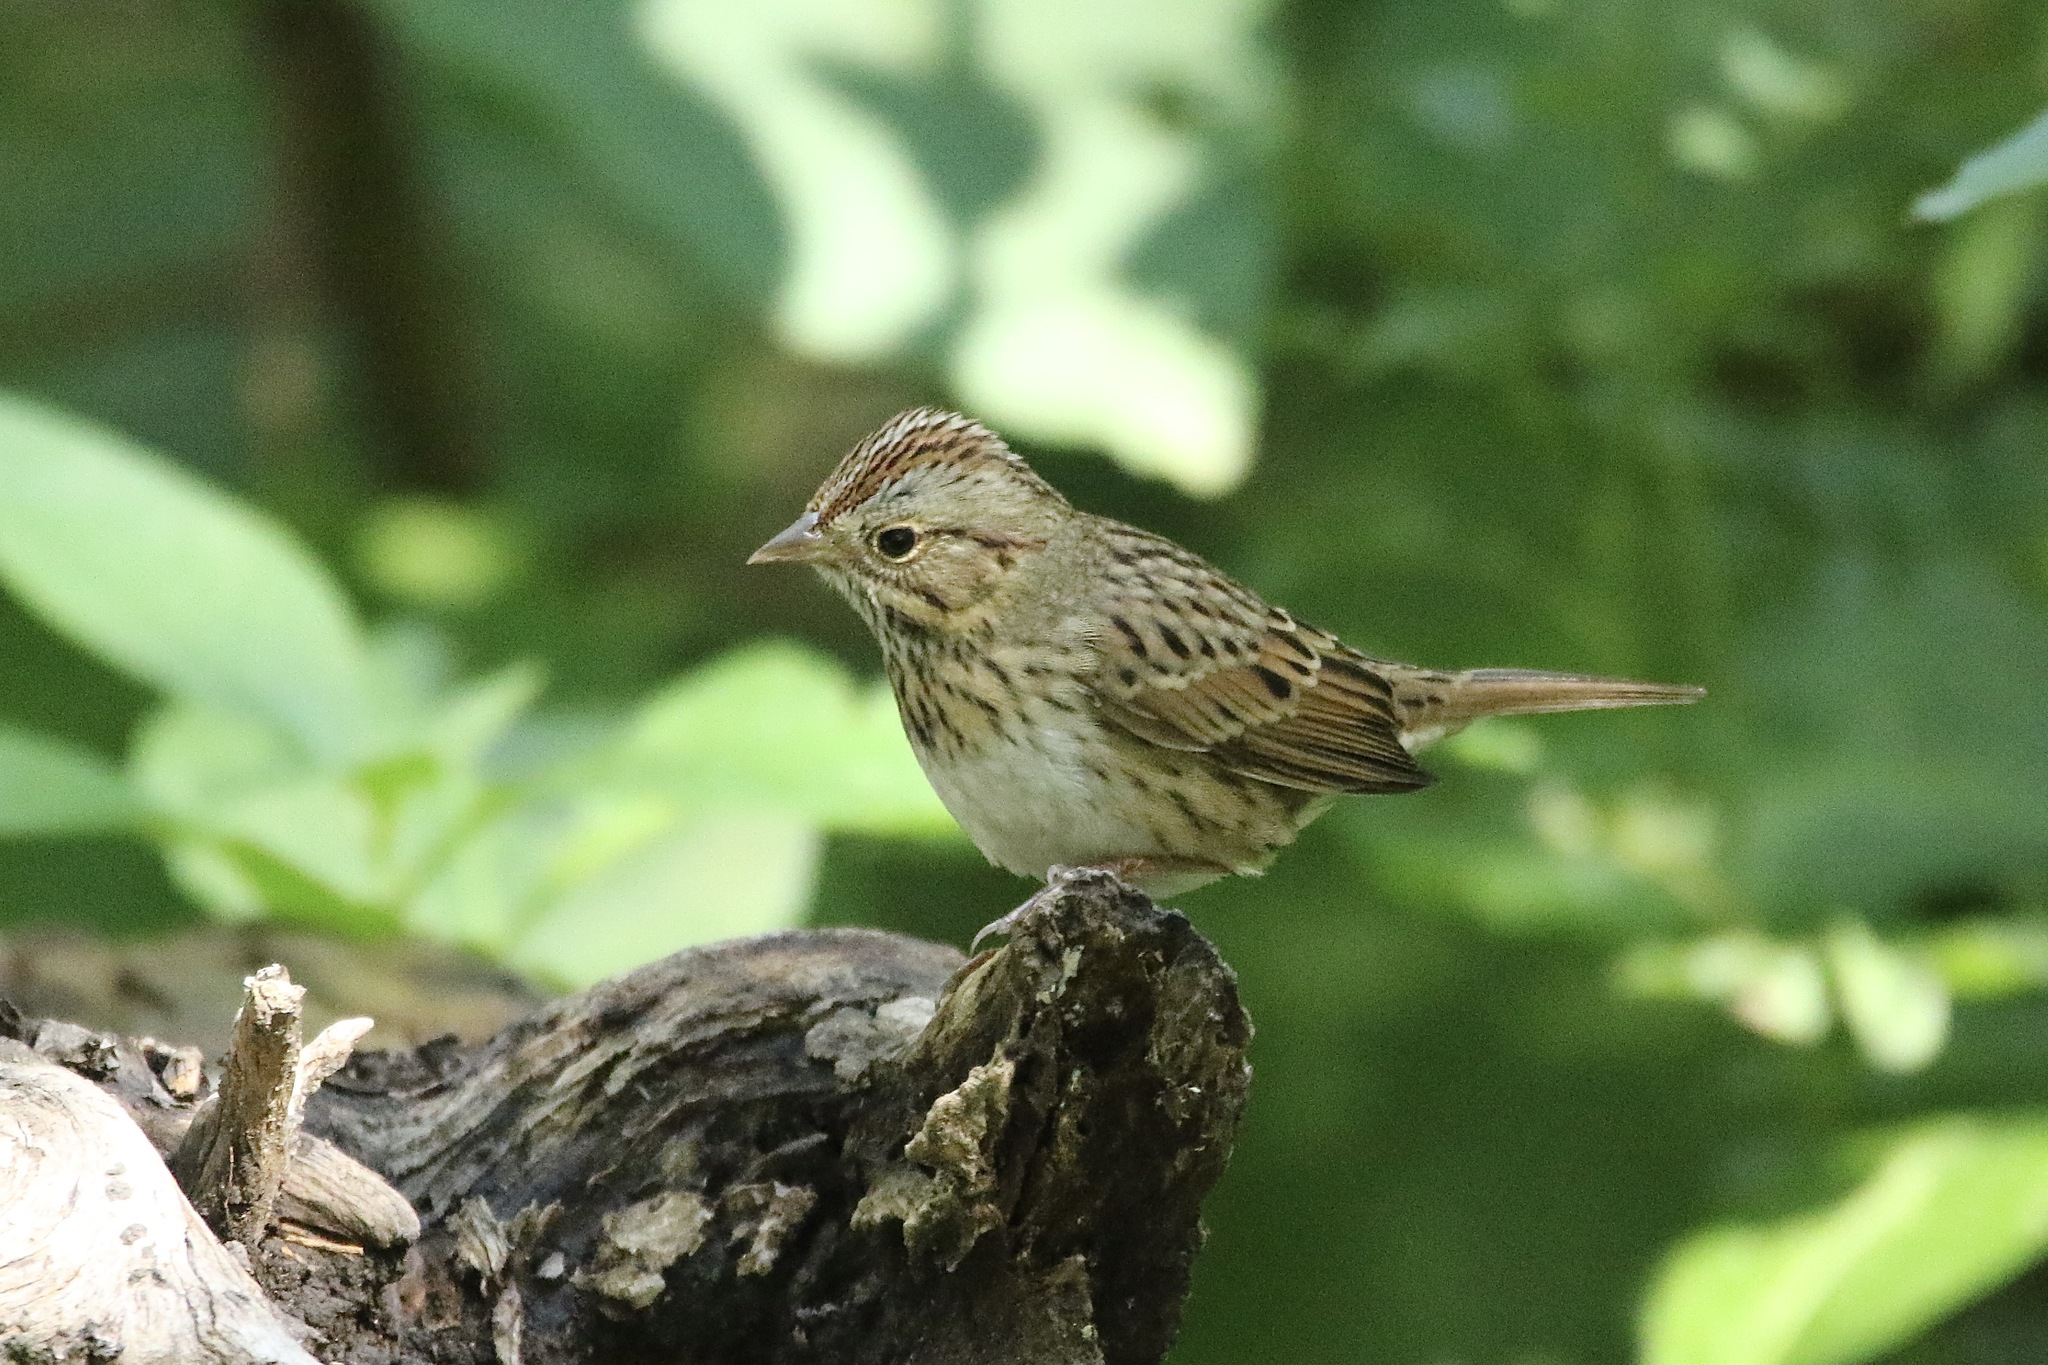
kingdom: Animalia
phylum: Chordata
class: Aves
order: Passeriformes
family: Passerellidae
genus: Melospiza
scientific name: Melospiza lincolnii
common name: Lincoln's sparrow
